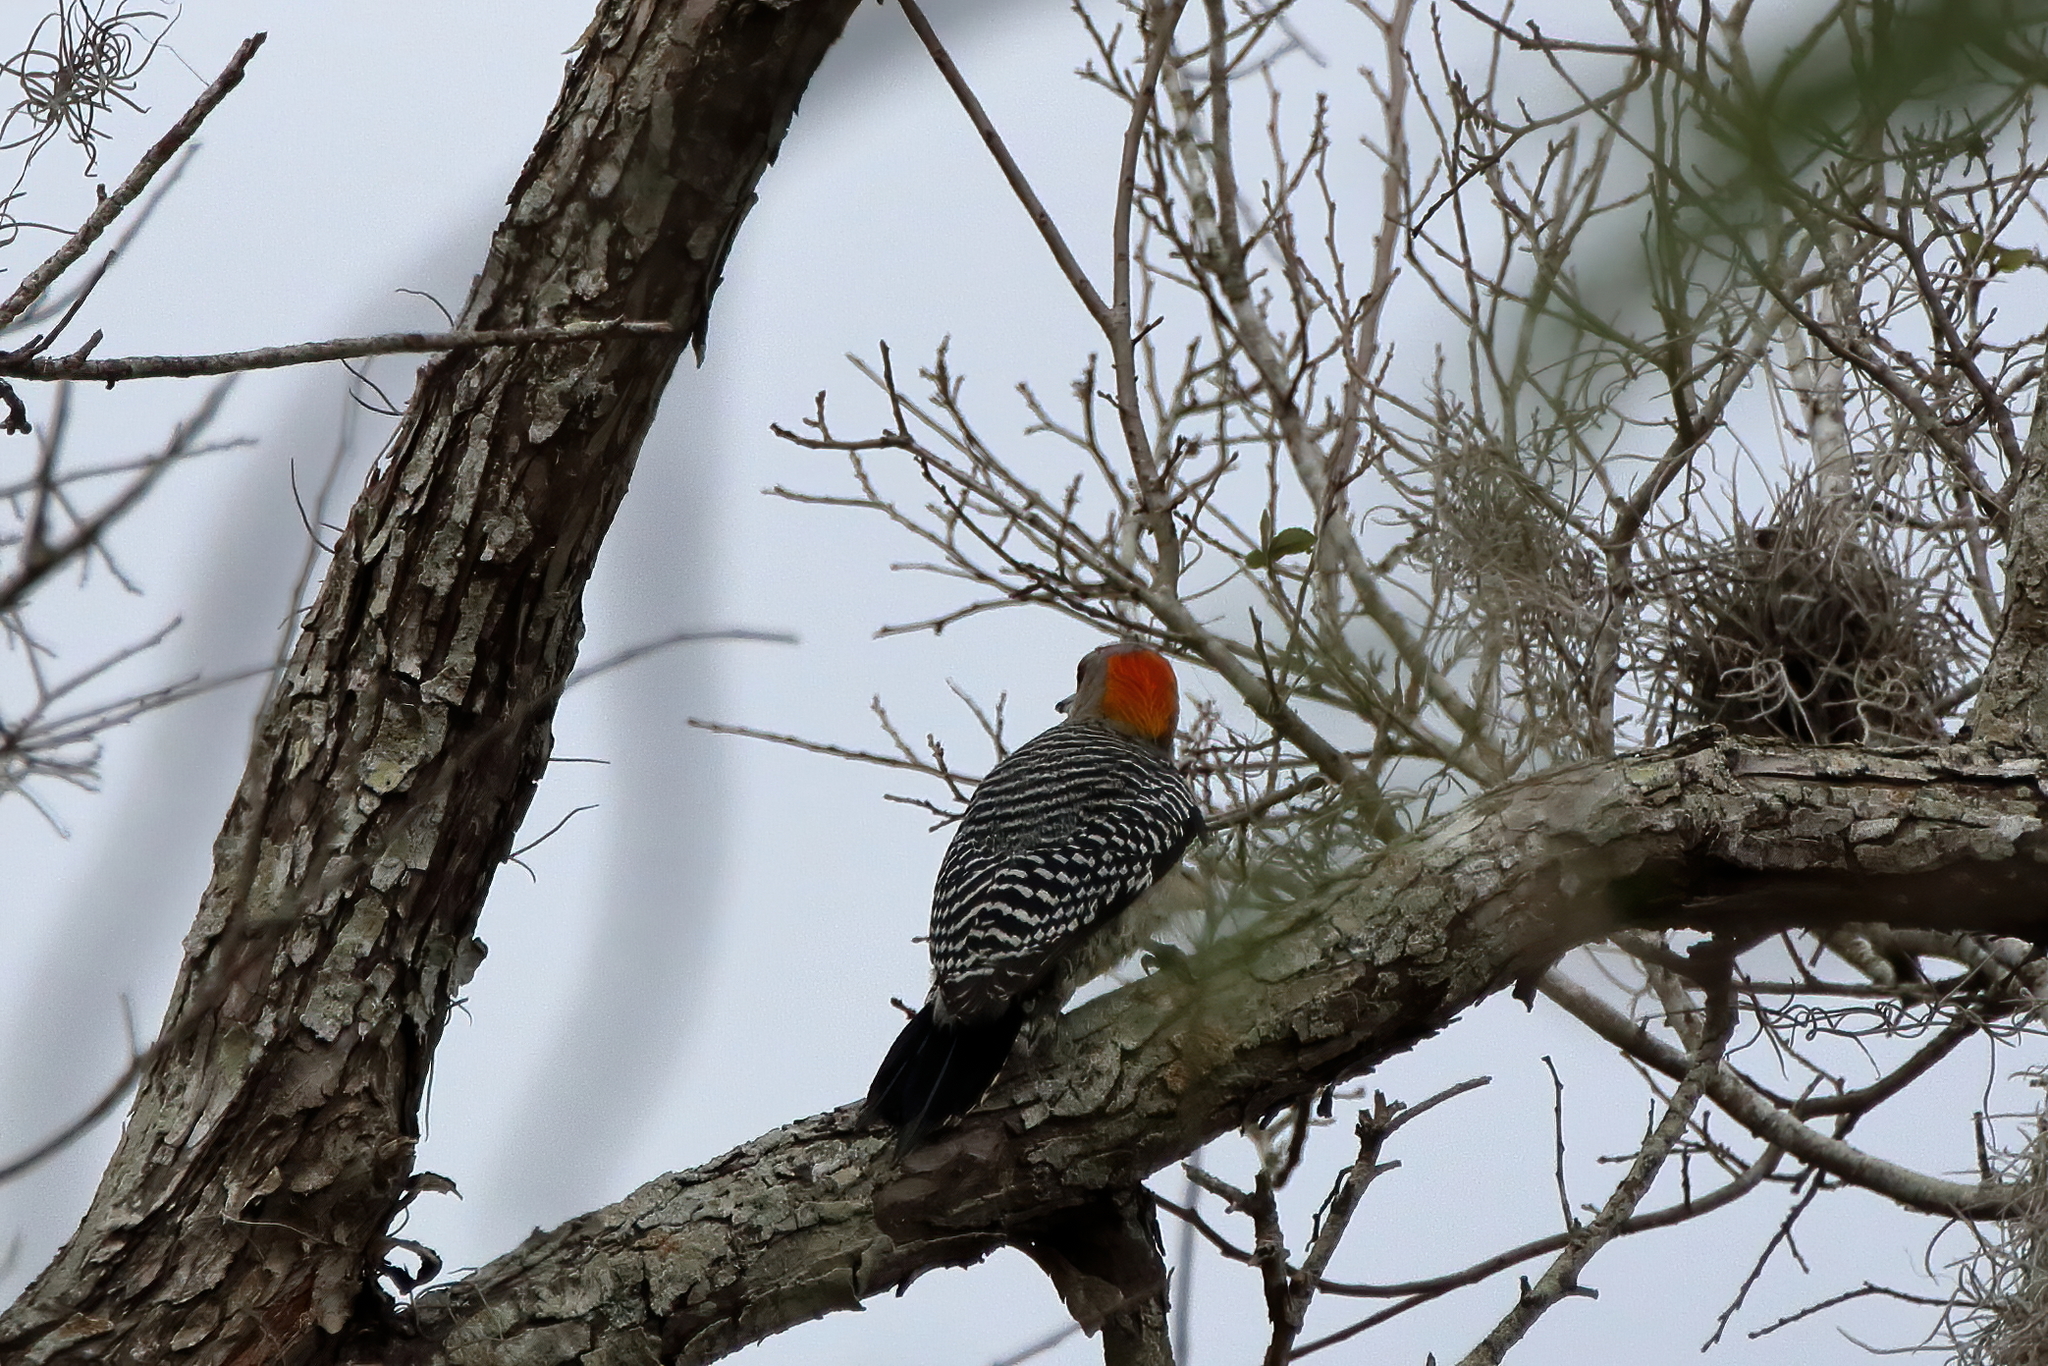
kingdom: Animalia
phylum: Chordata
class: Aves
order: Piciformes
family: Picidae
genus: Melanerpes
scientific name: Melanerpes aurifrons
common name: Golden-fronted woodpecker
